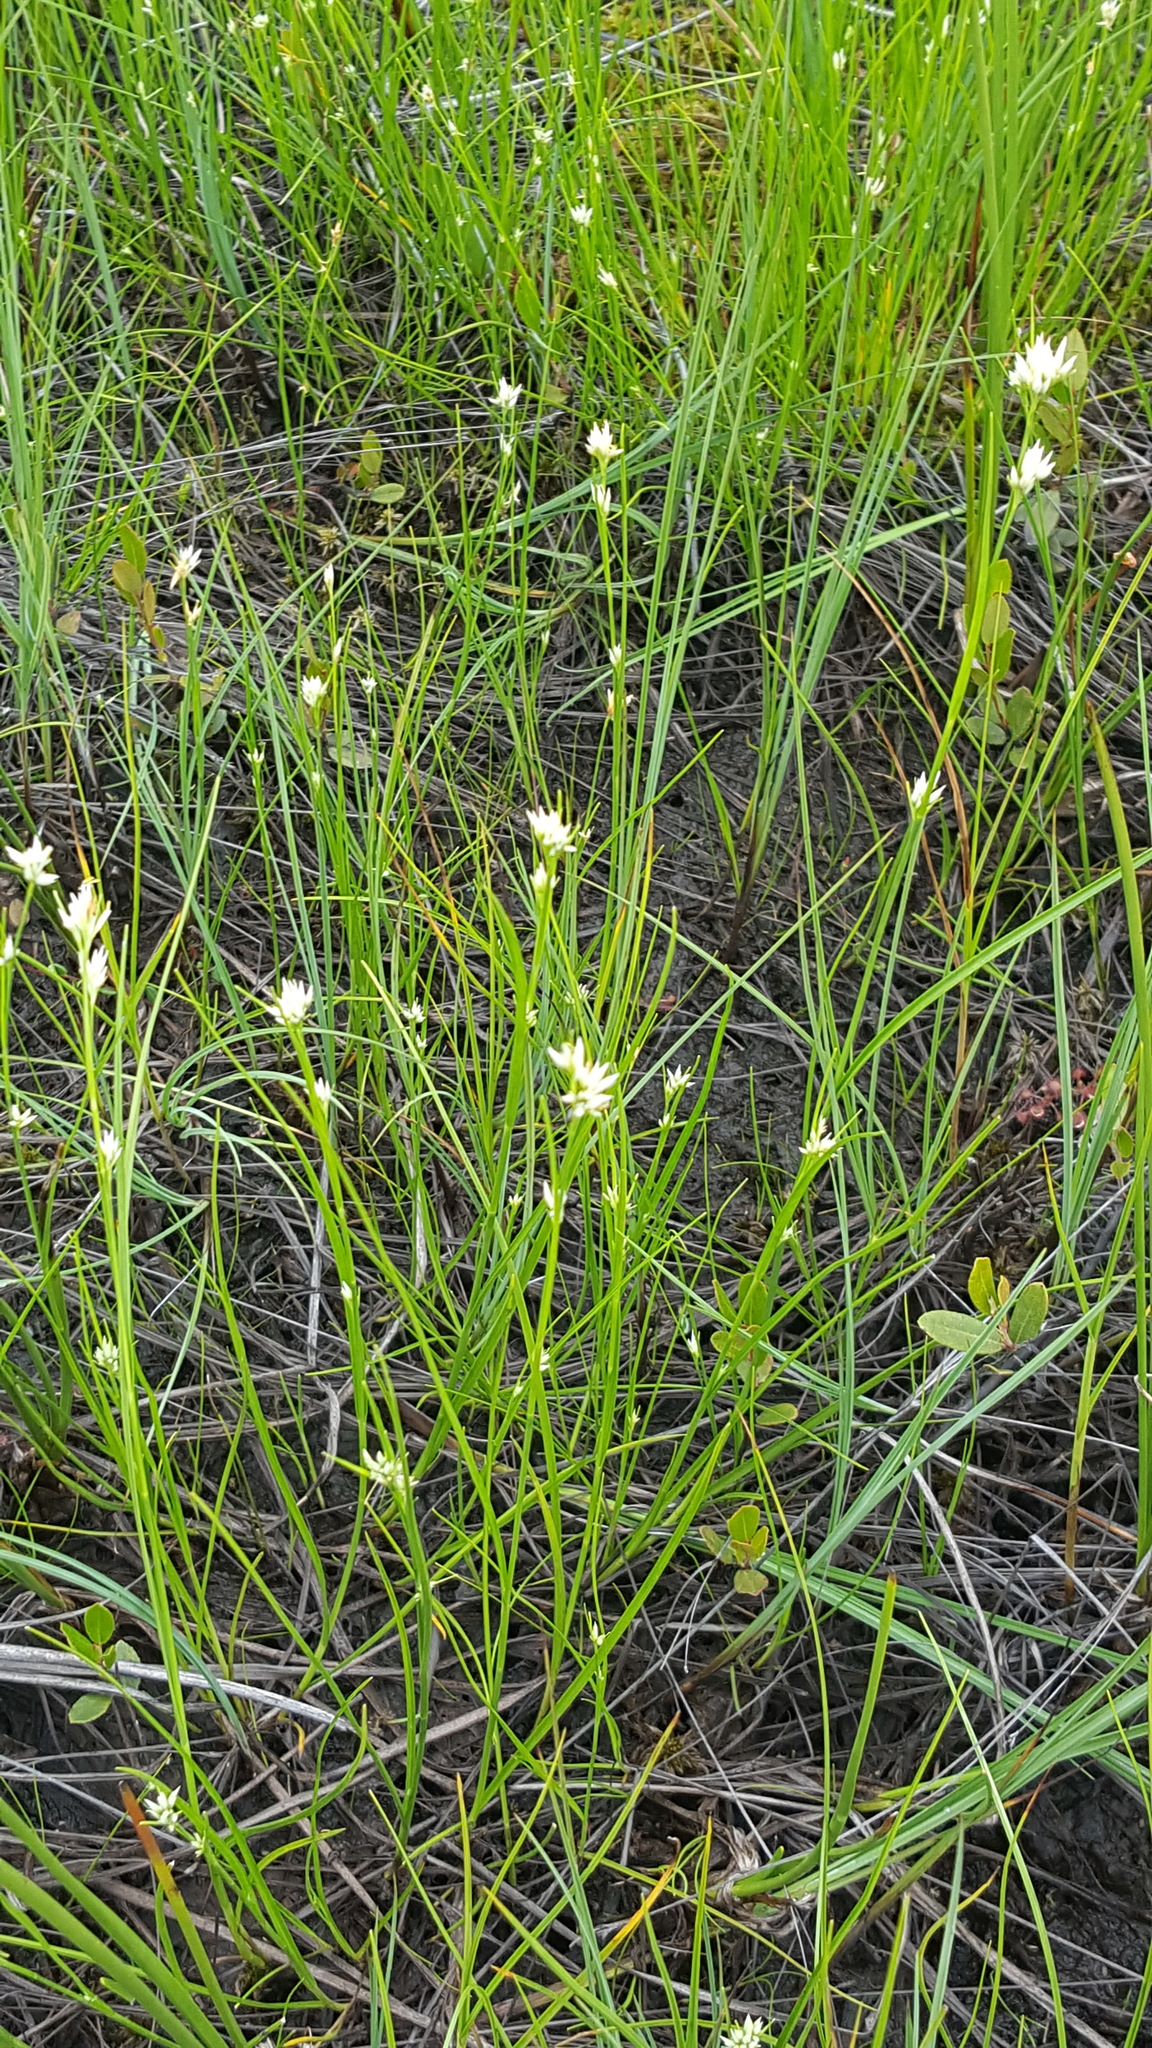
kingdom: Plantae
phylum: Tracheophyta
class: Liliopsida
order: Poales
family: Cyperaceae
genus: Rhynchospora
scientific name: Rhynchospora alba
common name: White beak-sedge
